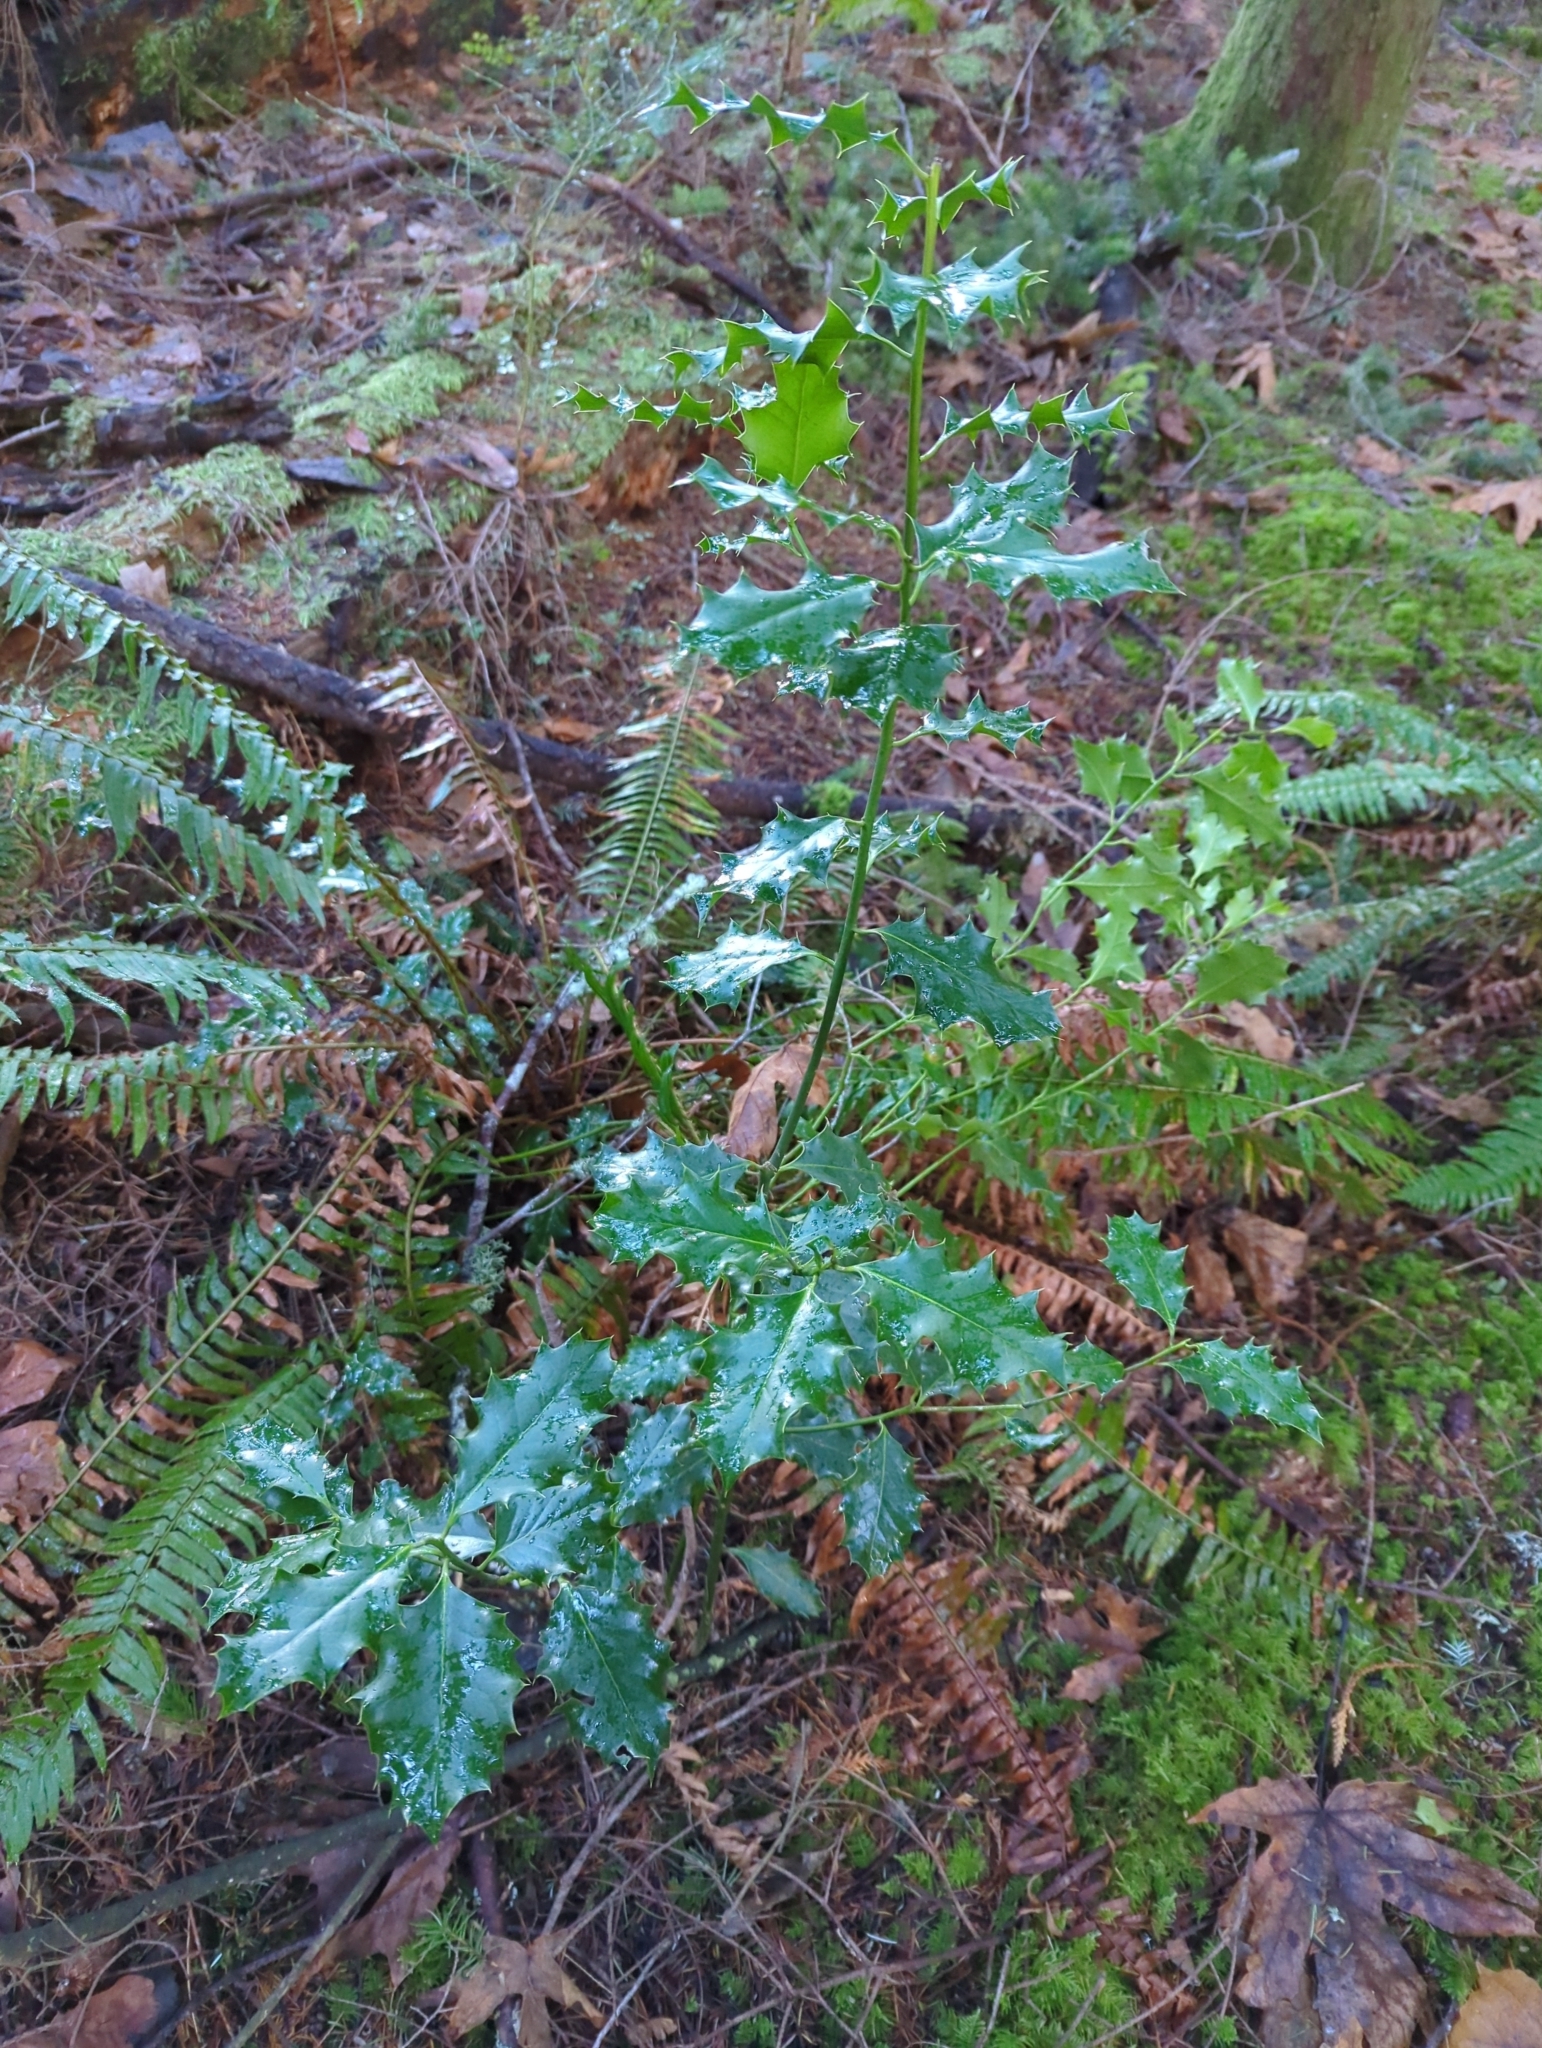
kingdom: Plantae
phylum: Tracheophyta
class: Magnoliopsida
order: Aquifoliales
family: Aquifoliaceae
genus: Ilex
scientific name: Ilex aquifolium
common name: English holly
